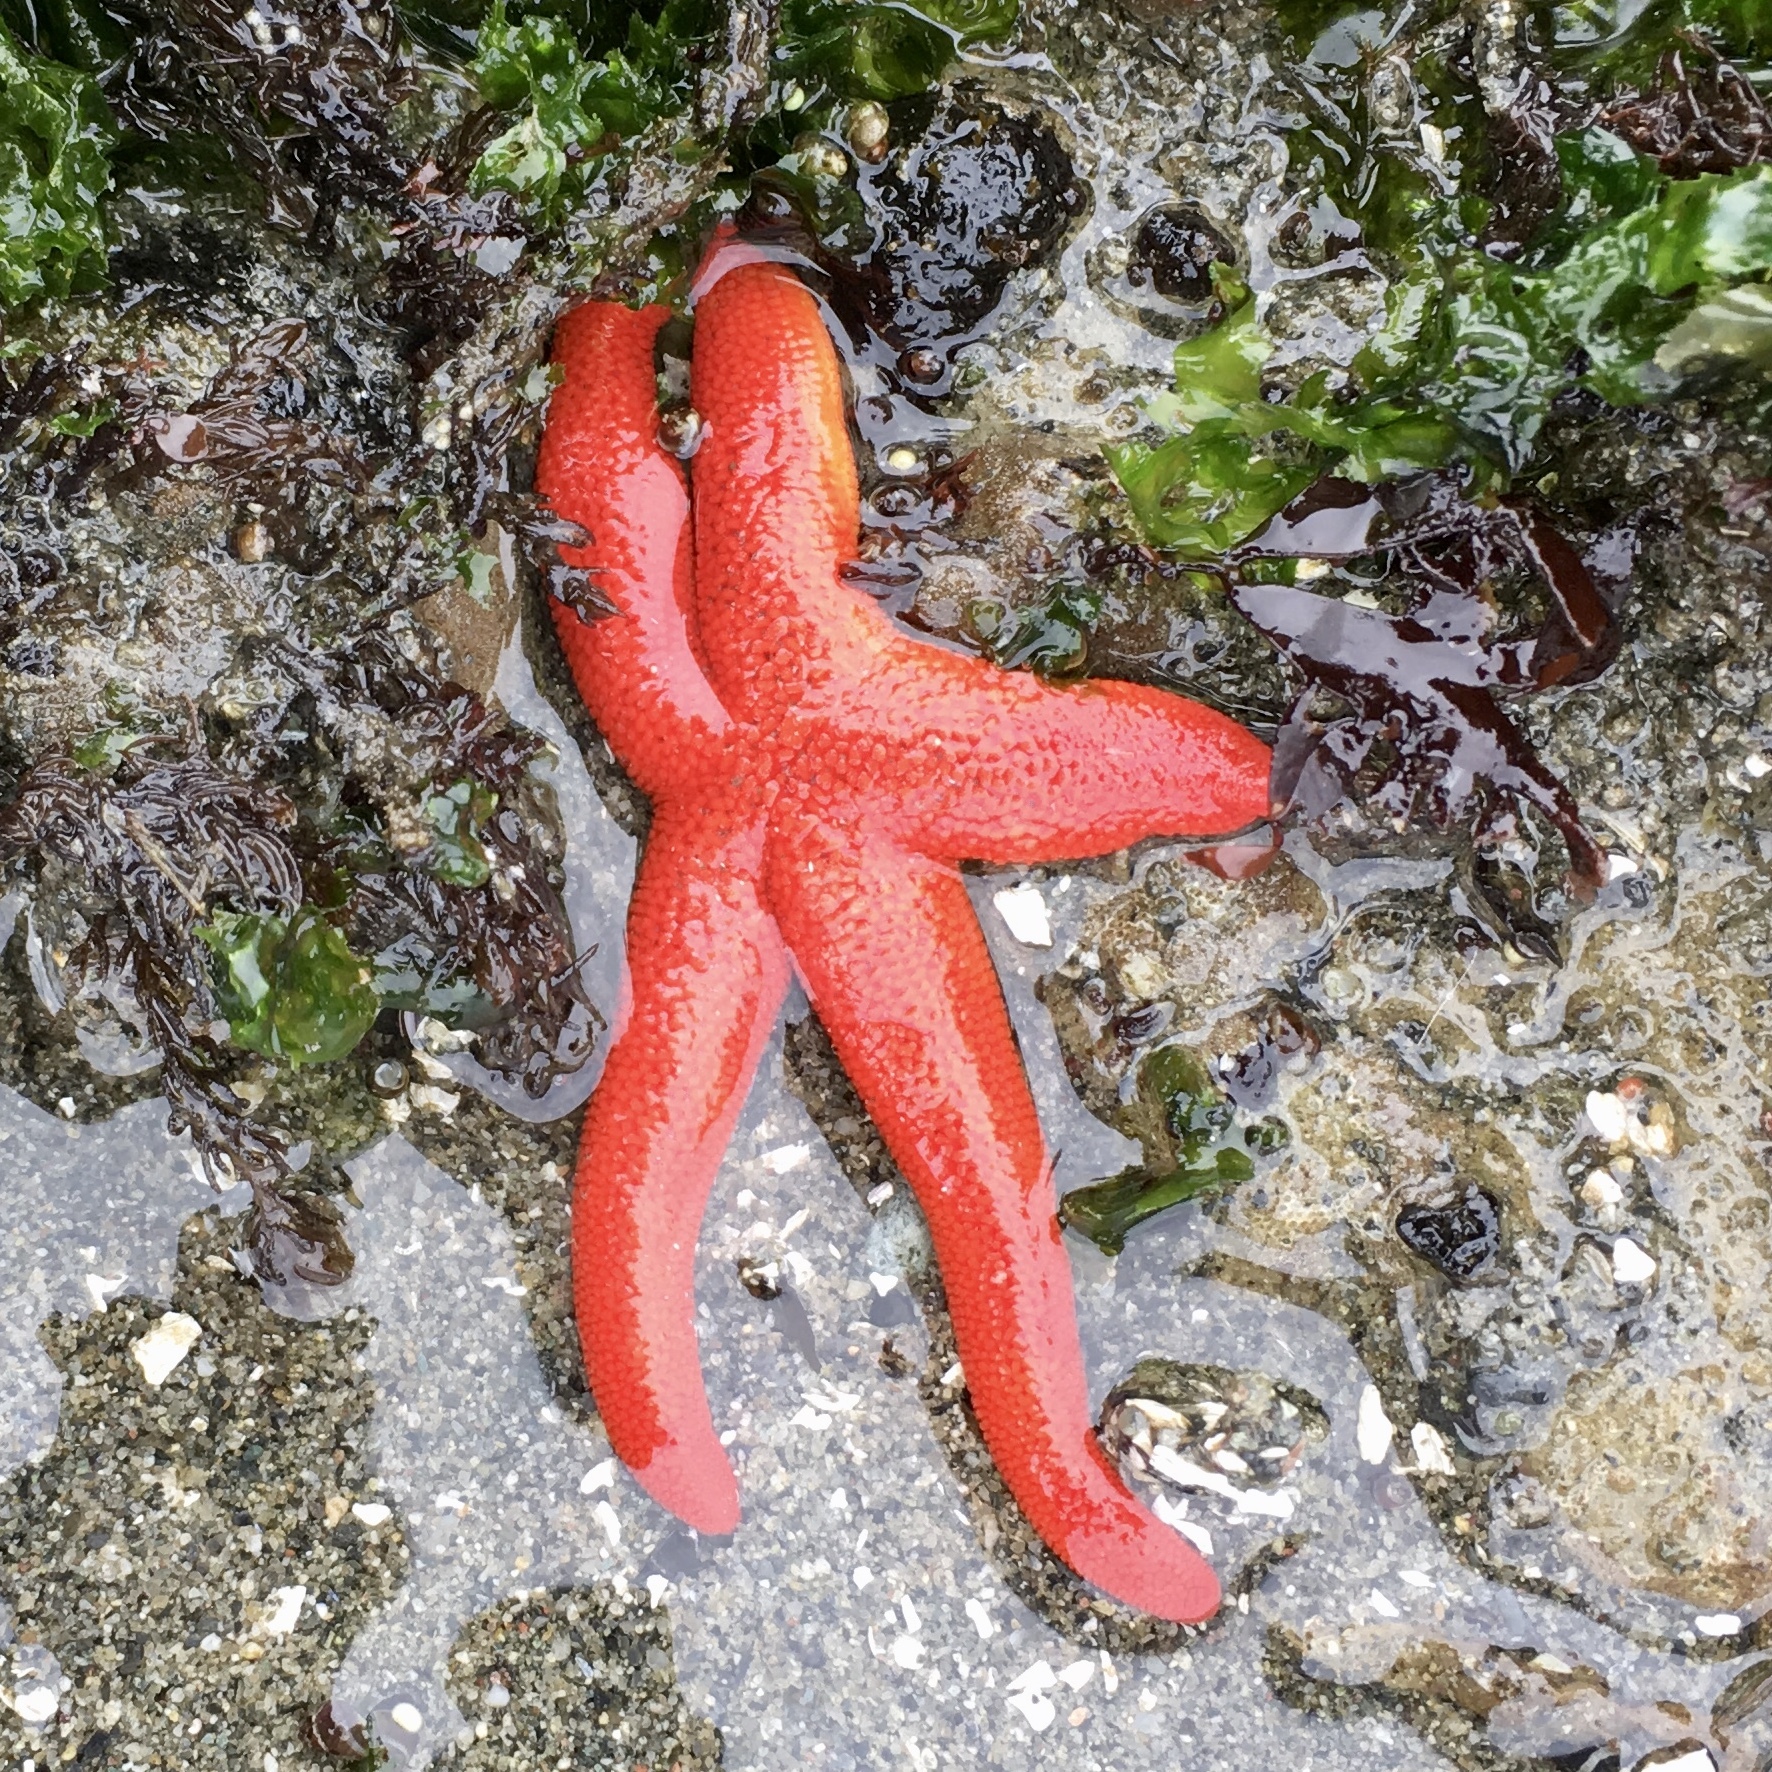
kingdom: Animalia
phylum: Echinodermata
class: Asteroidea
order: Spinulosida
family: Echinasteridae
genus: Henricia
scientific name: Henricia
